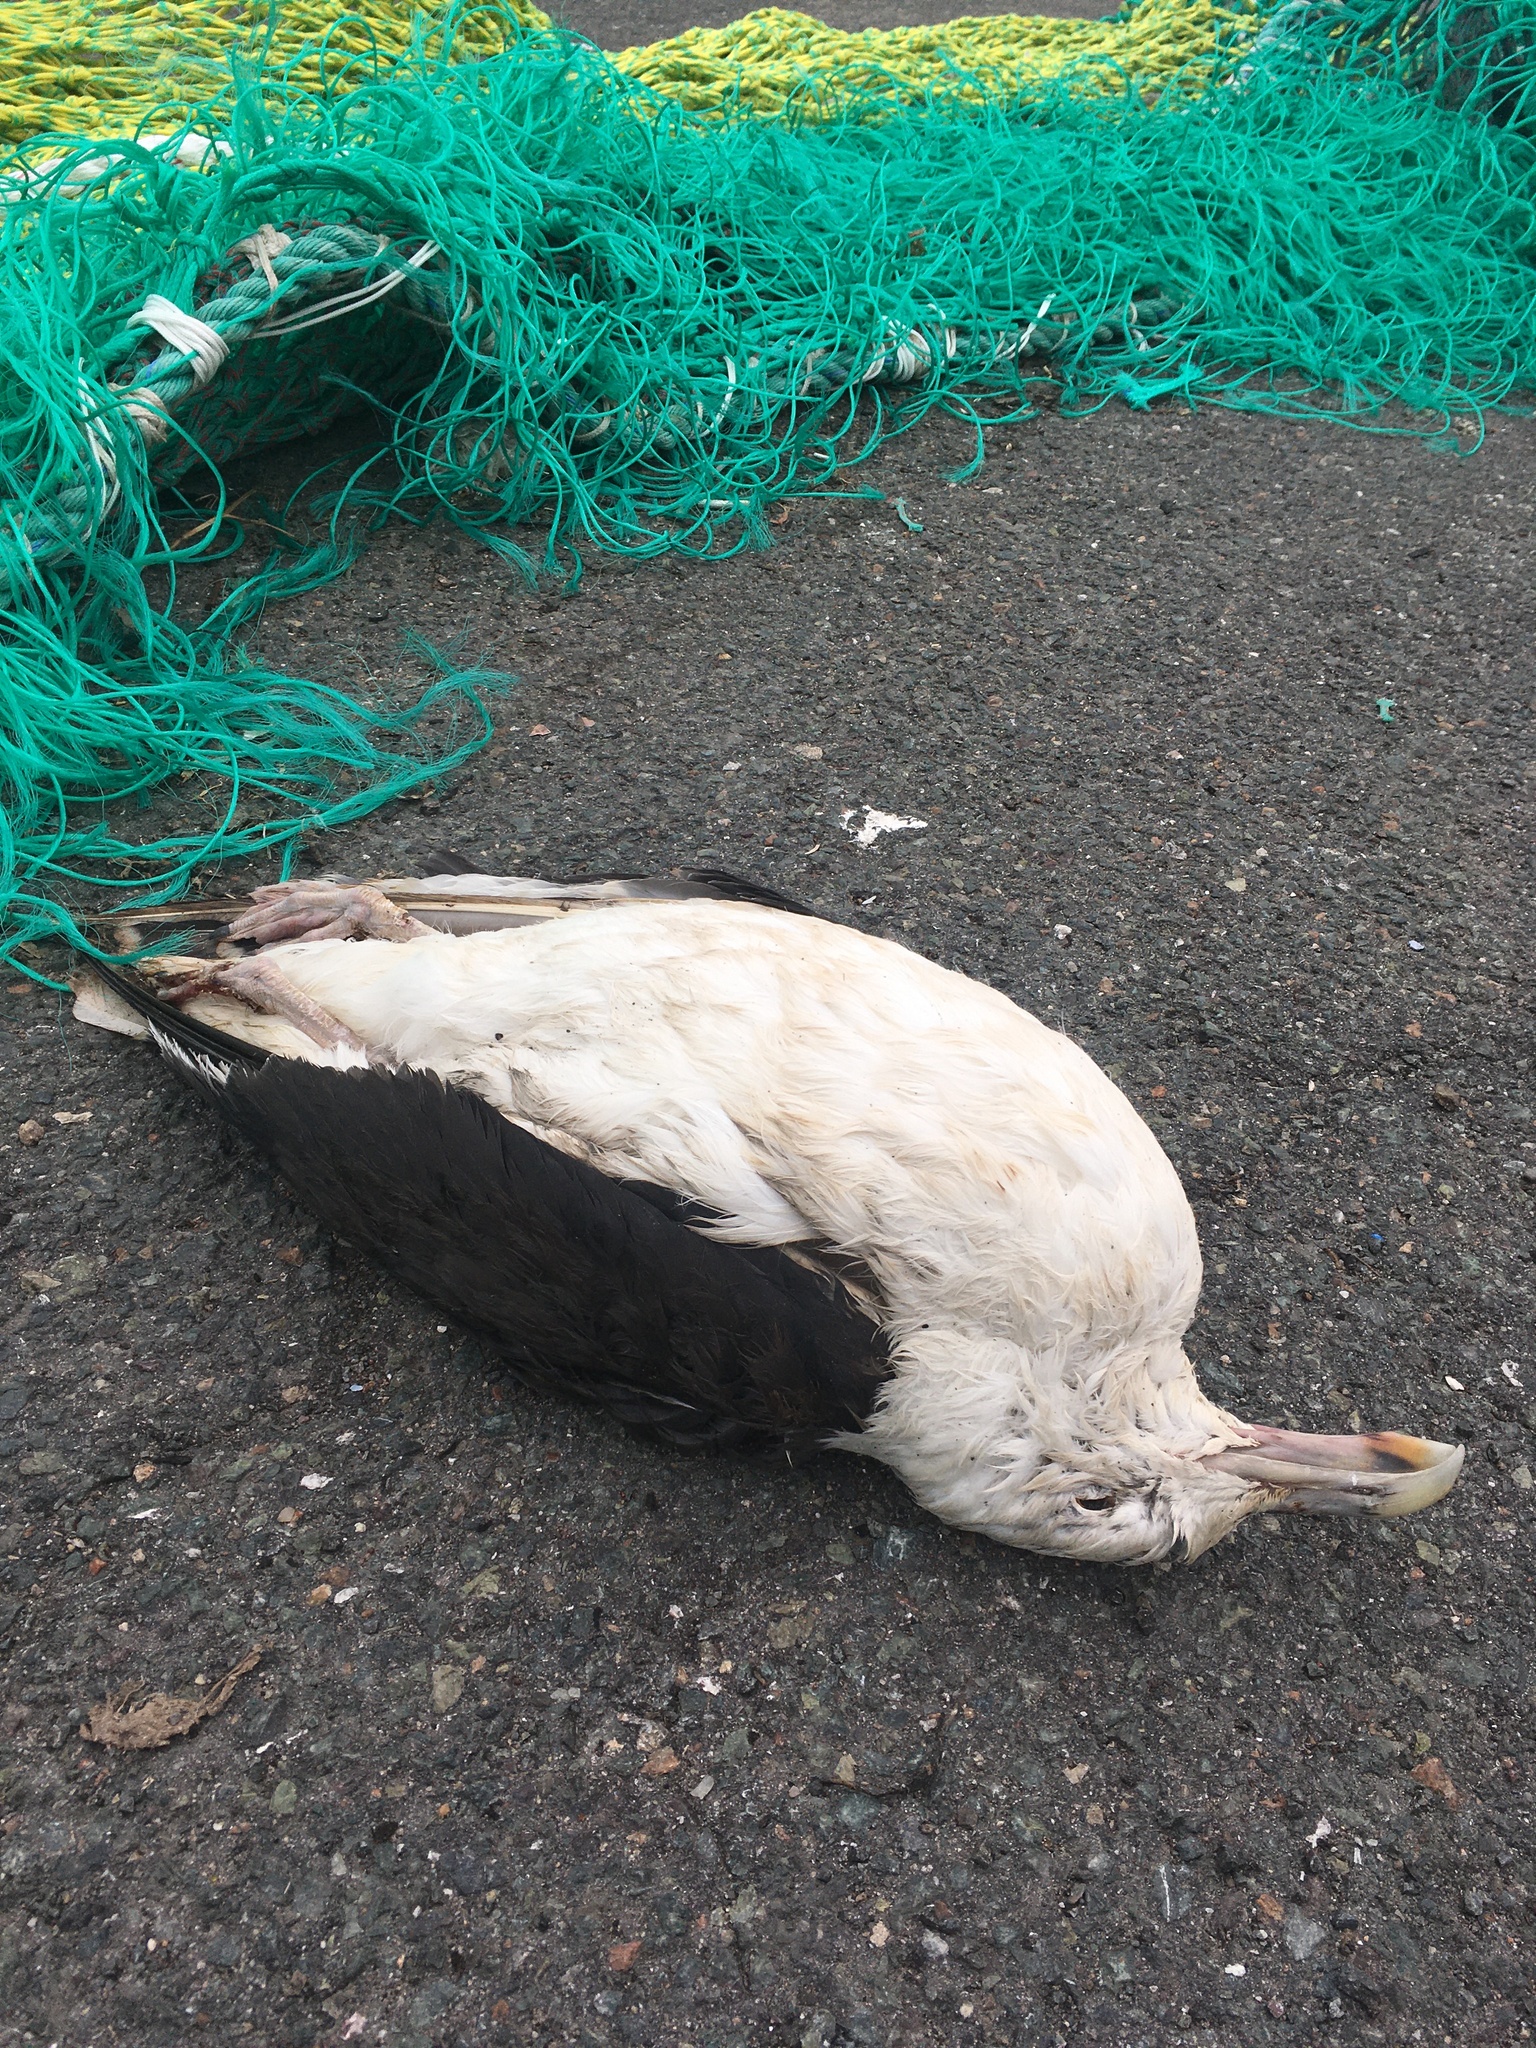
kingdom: Animalia
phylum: Chordata
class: Aves
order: Charadriiformes
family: Laridae
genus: Larus
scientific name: Larus marinus
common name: Great black-backed gull
